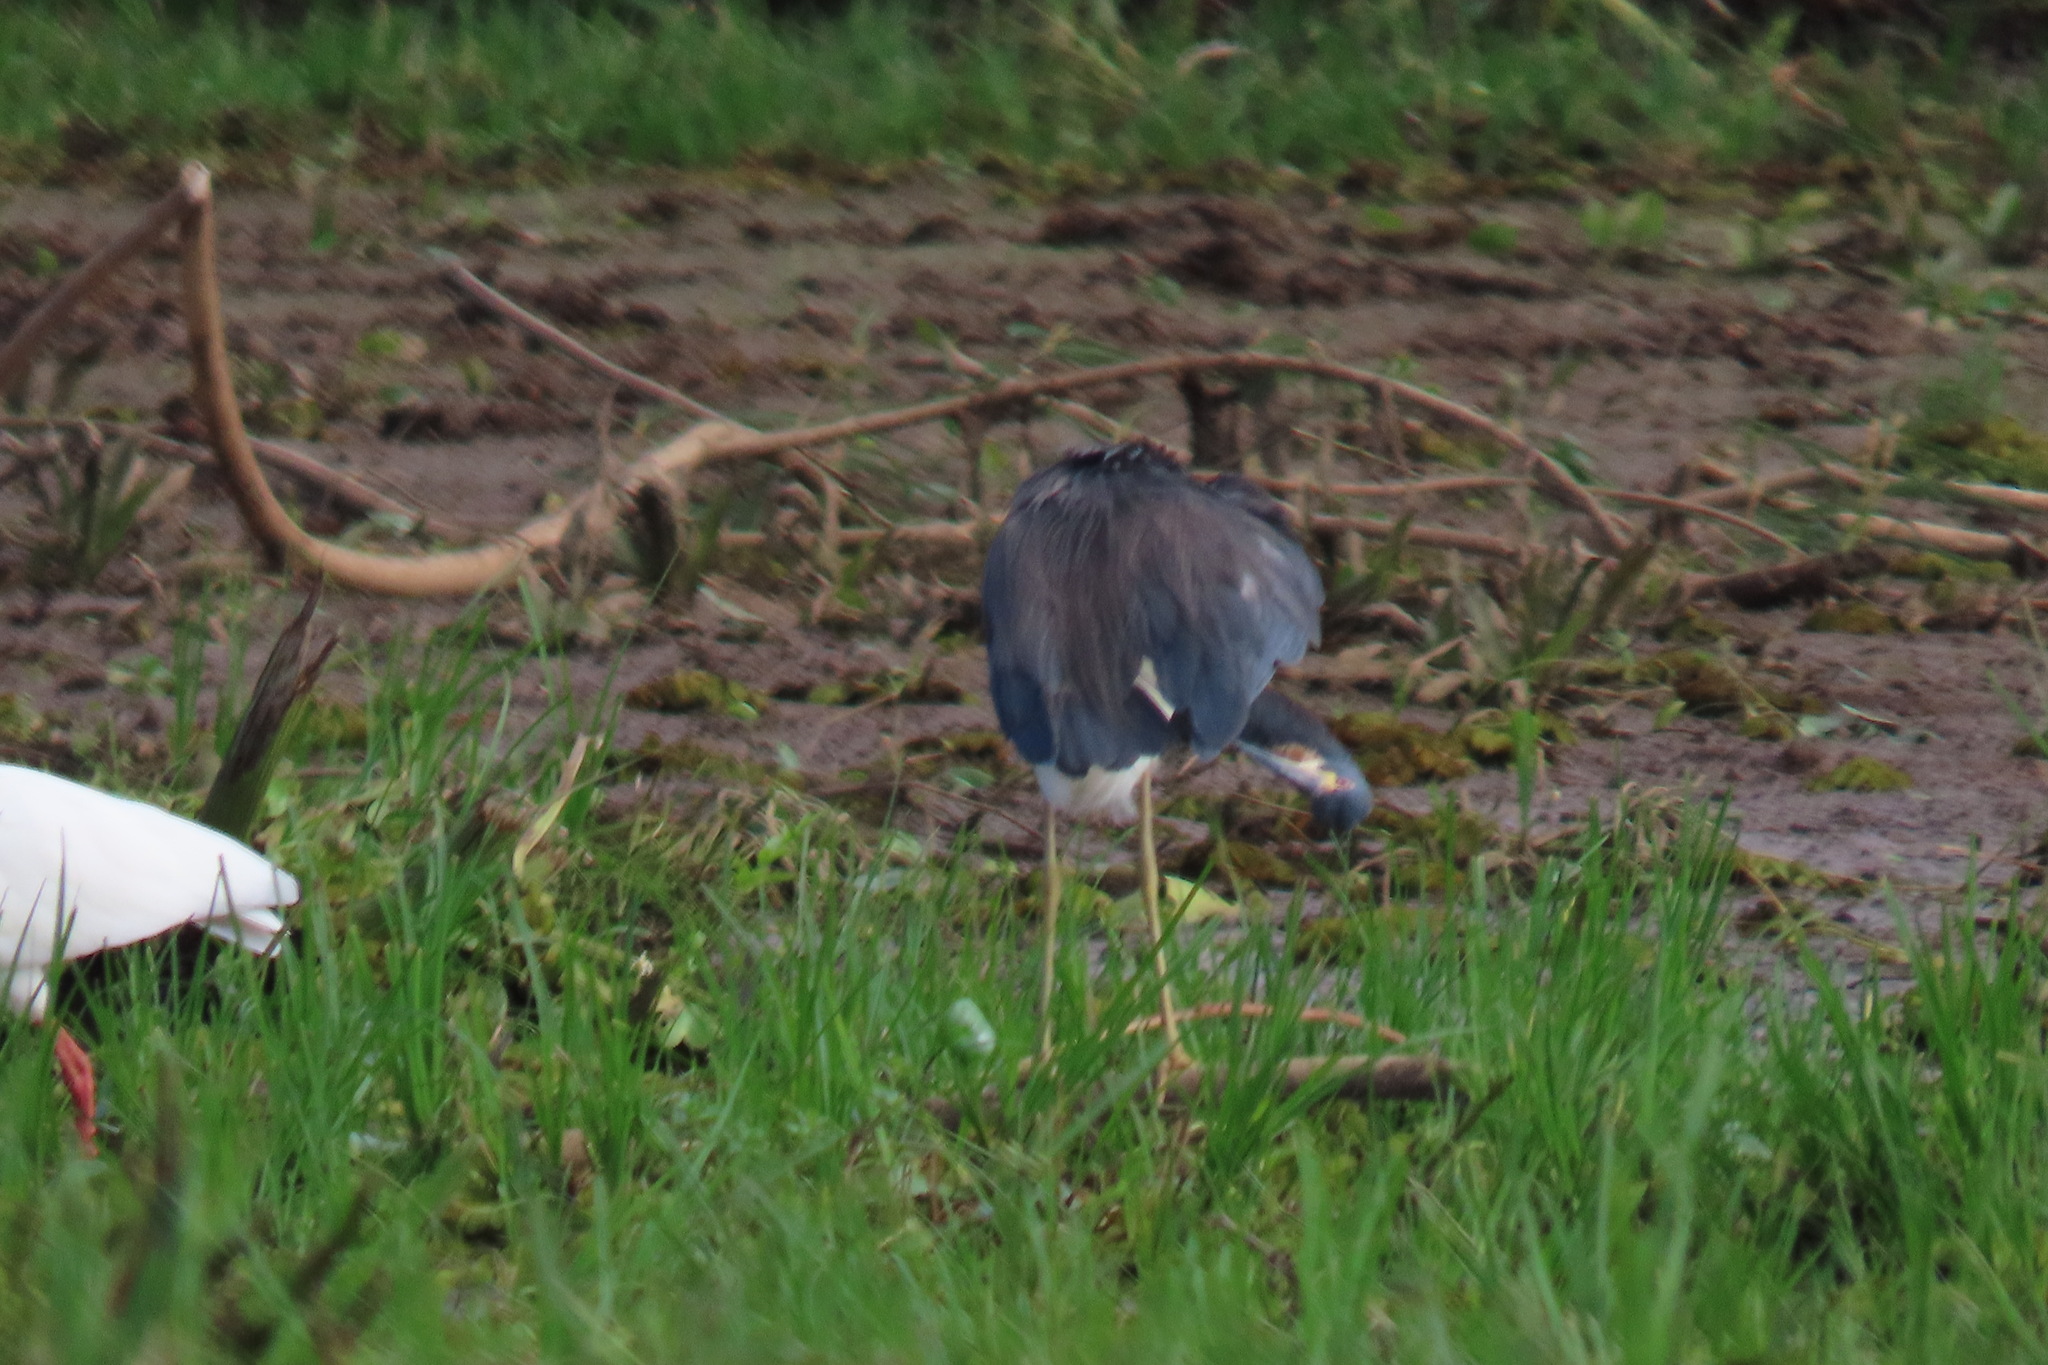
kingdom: Animalia
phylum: Chordata
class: Aves
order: Pelecaniformes
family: Ardeidae
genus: Egretta
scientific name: Egretta tricolor
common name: Tricolored heron
